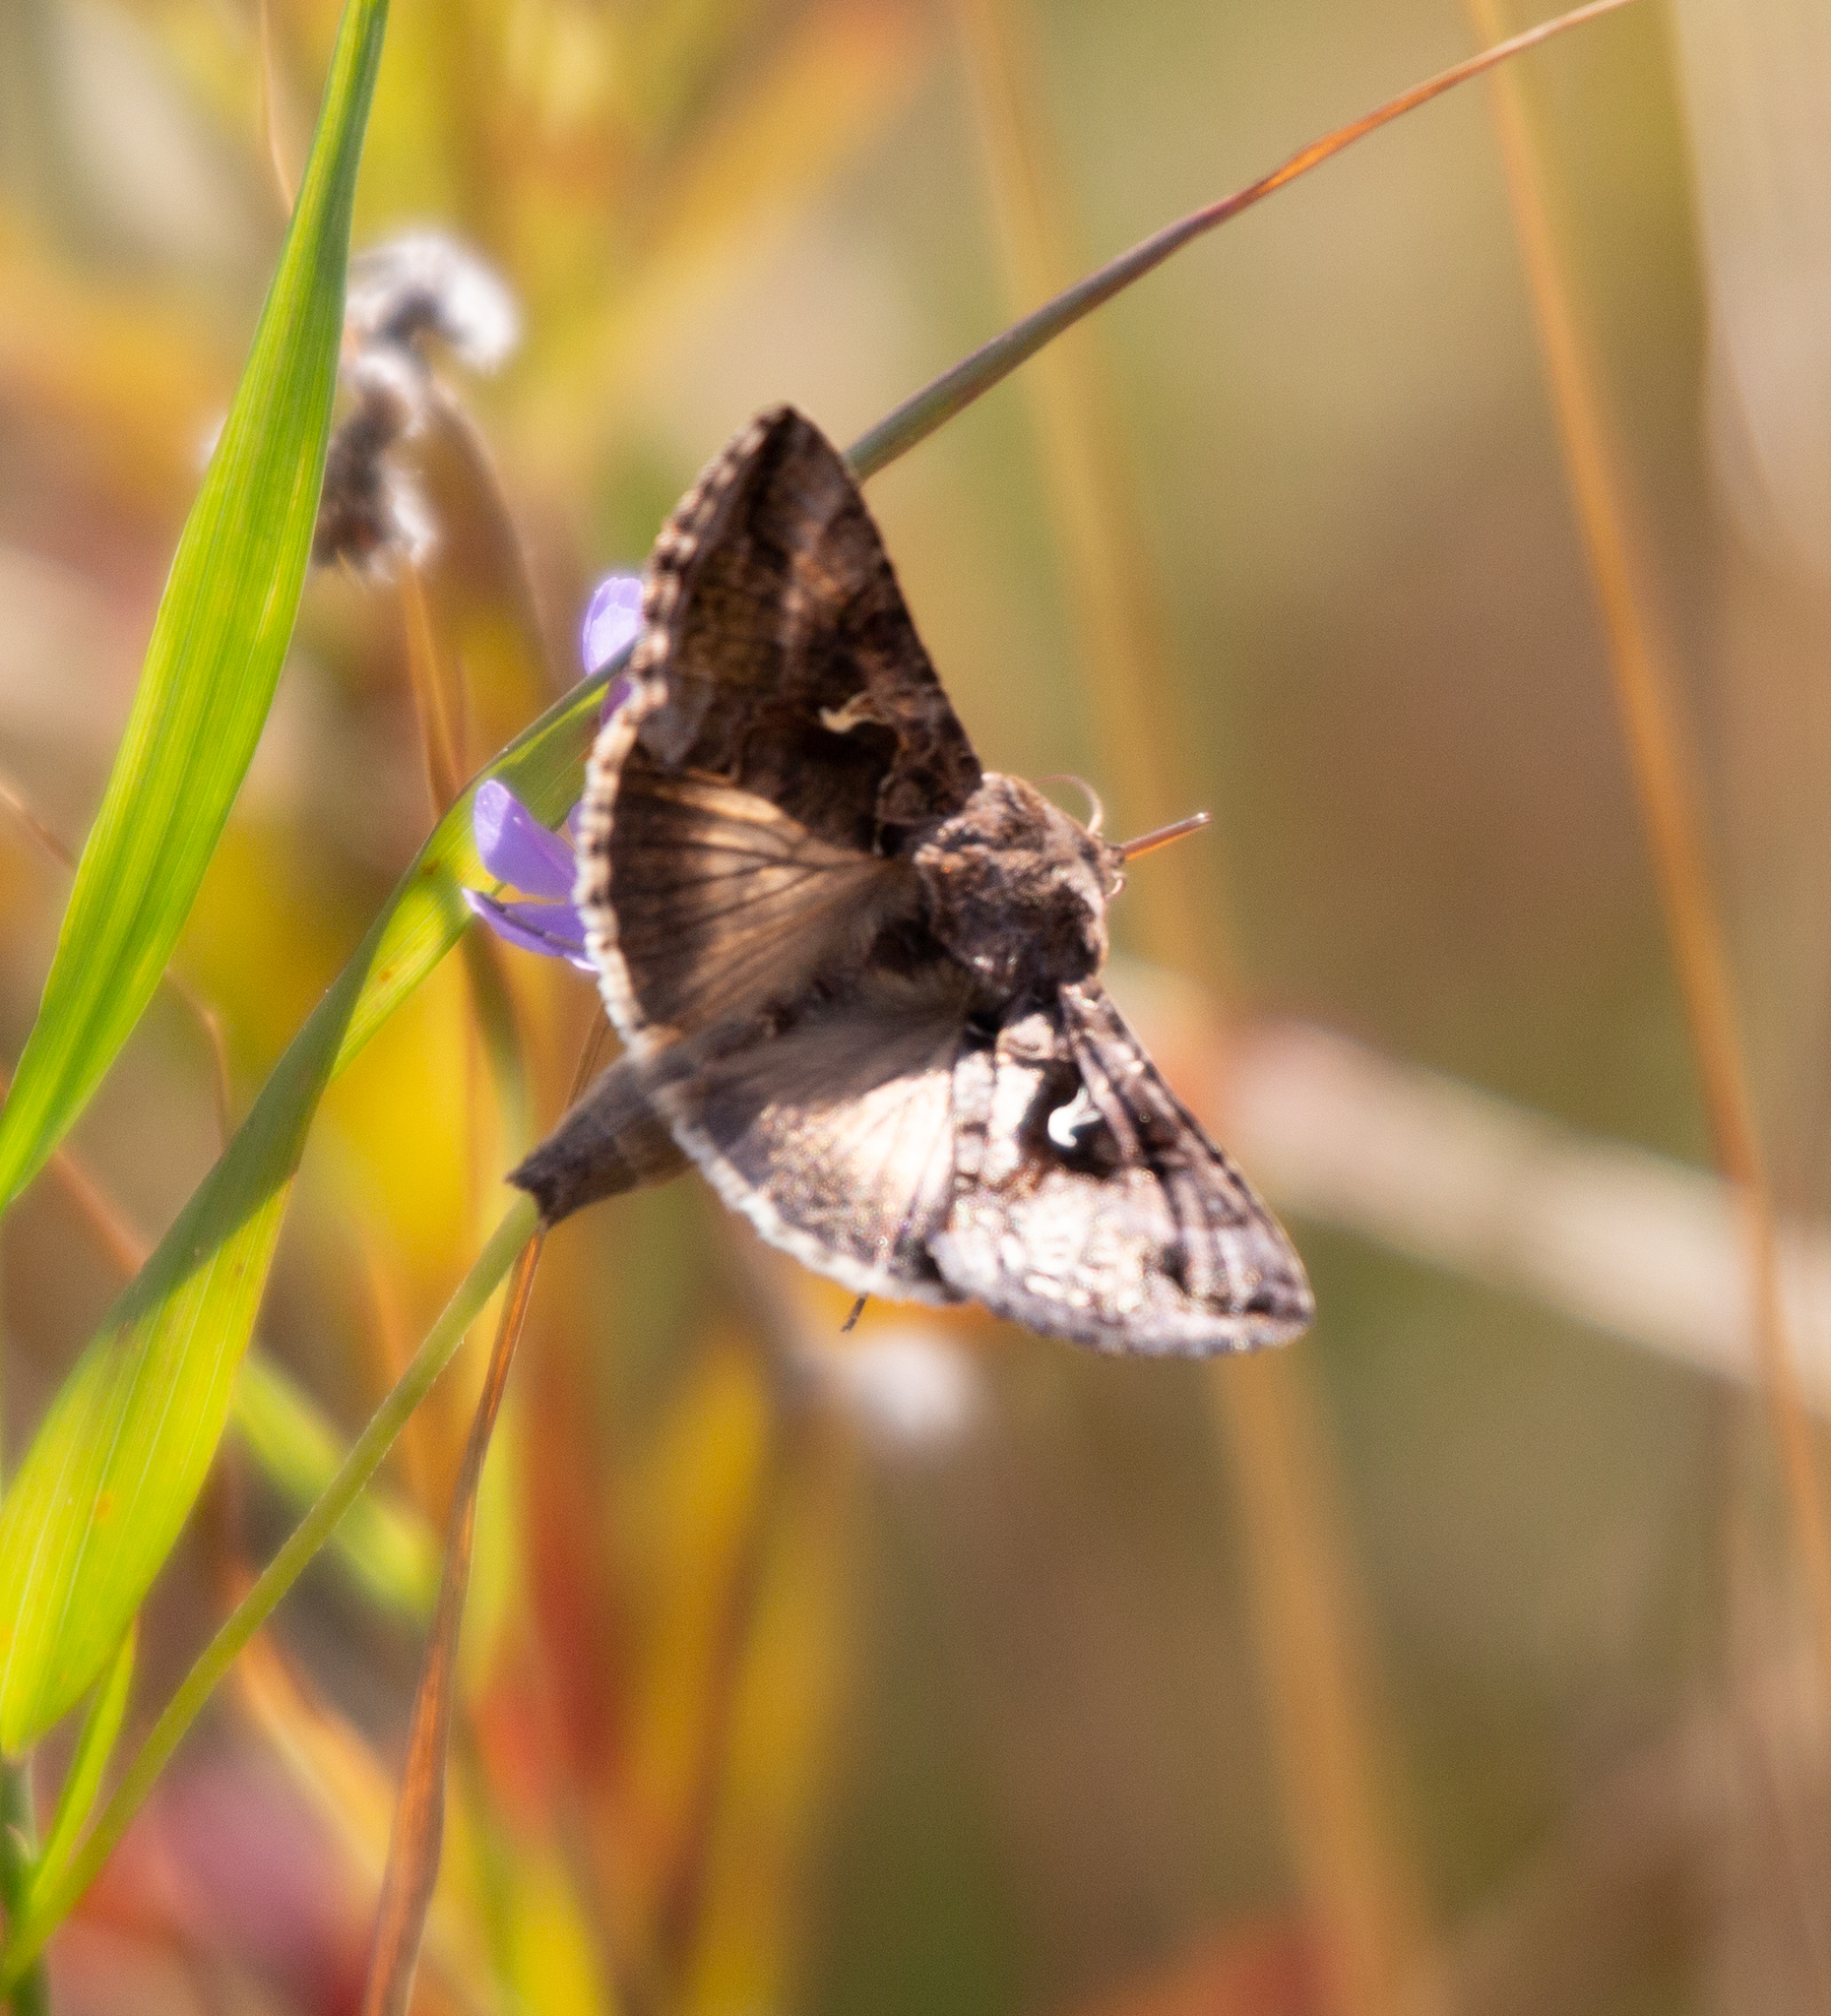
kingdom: Animalia
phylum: Arthropoda
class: Insecta
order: Lepidoptera
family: Noctuidae
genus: Autographa
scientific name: Autographa gamma
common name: Silver y
